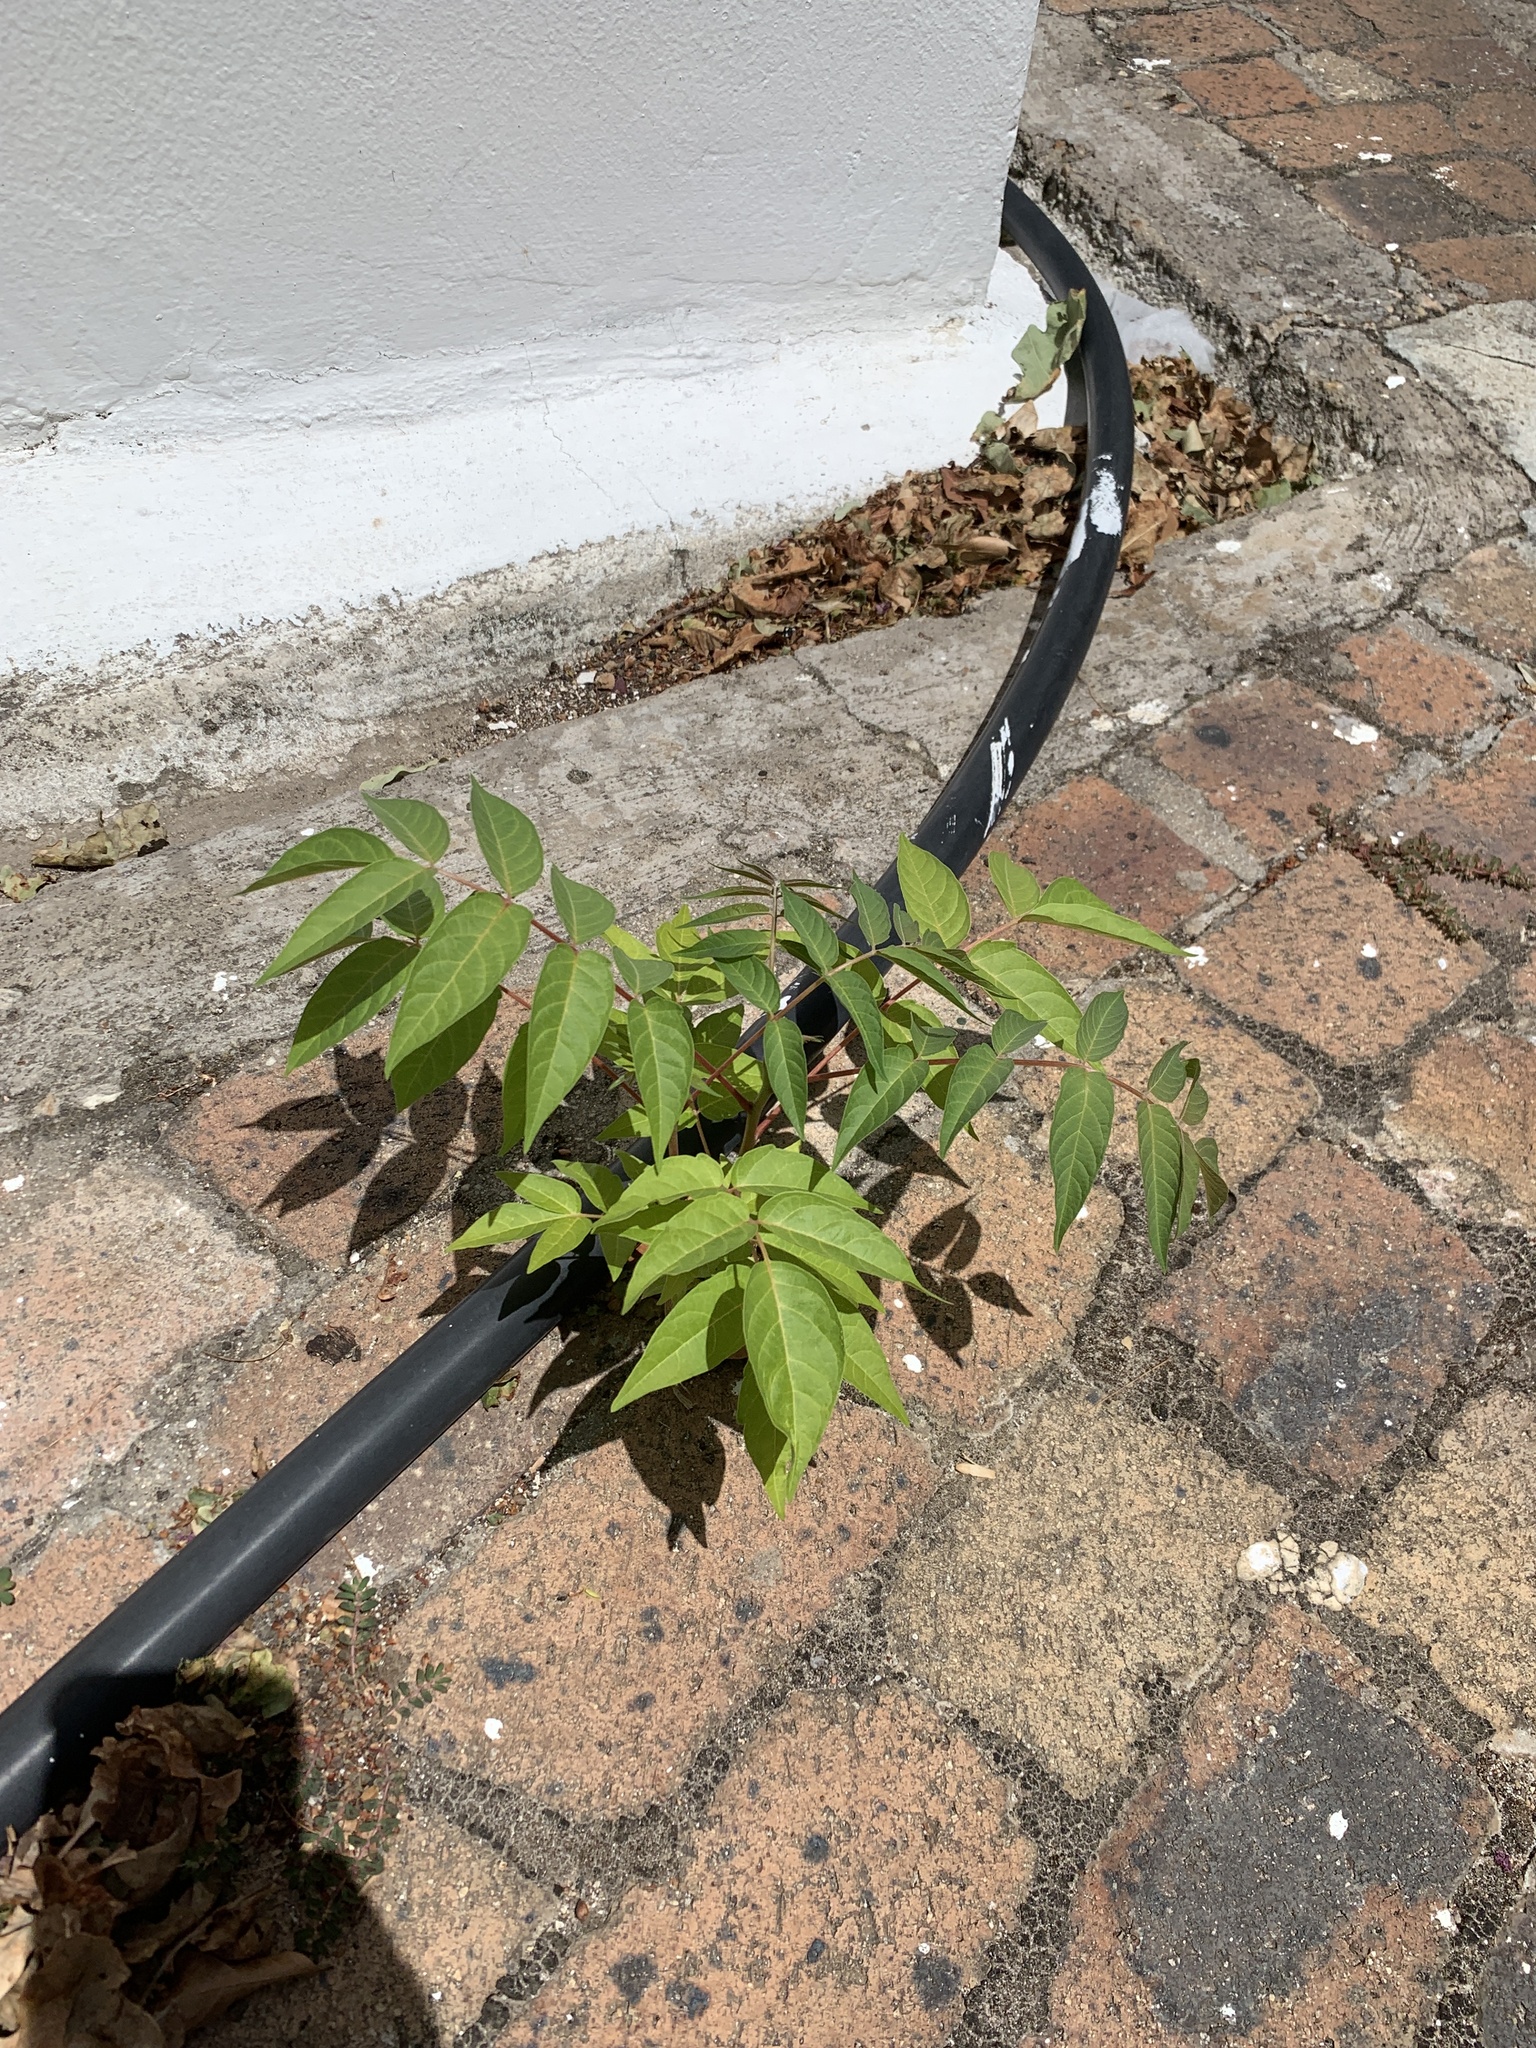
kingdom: Plantae
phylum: Tracheophyta
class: Magnoliopsida
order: Sapindales
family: Simaroubaceae
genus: Ailanthus
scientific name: Ailanthus altissima
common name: Tree-of-heaven
